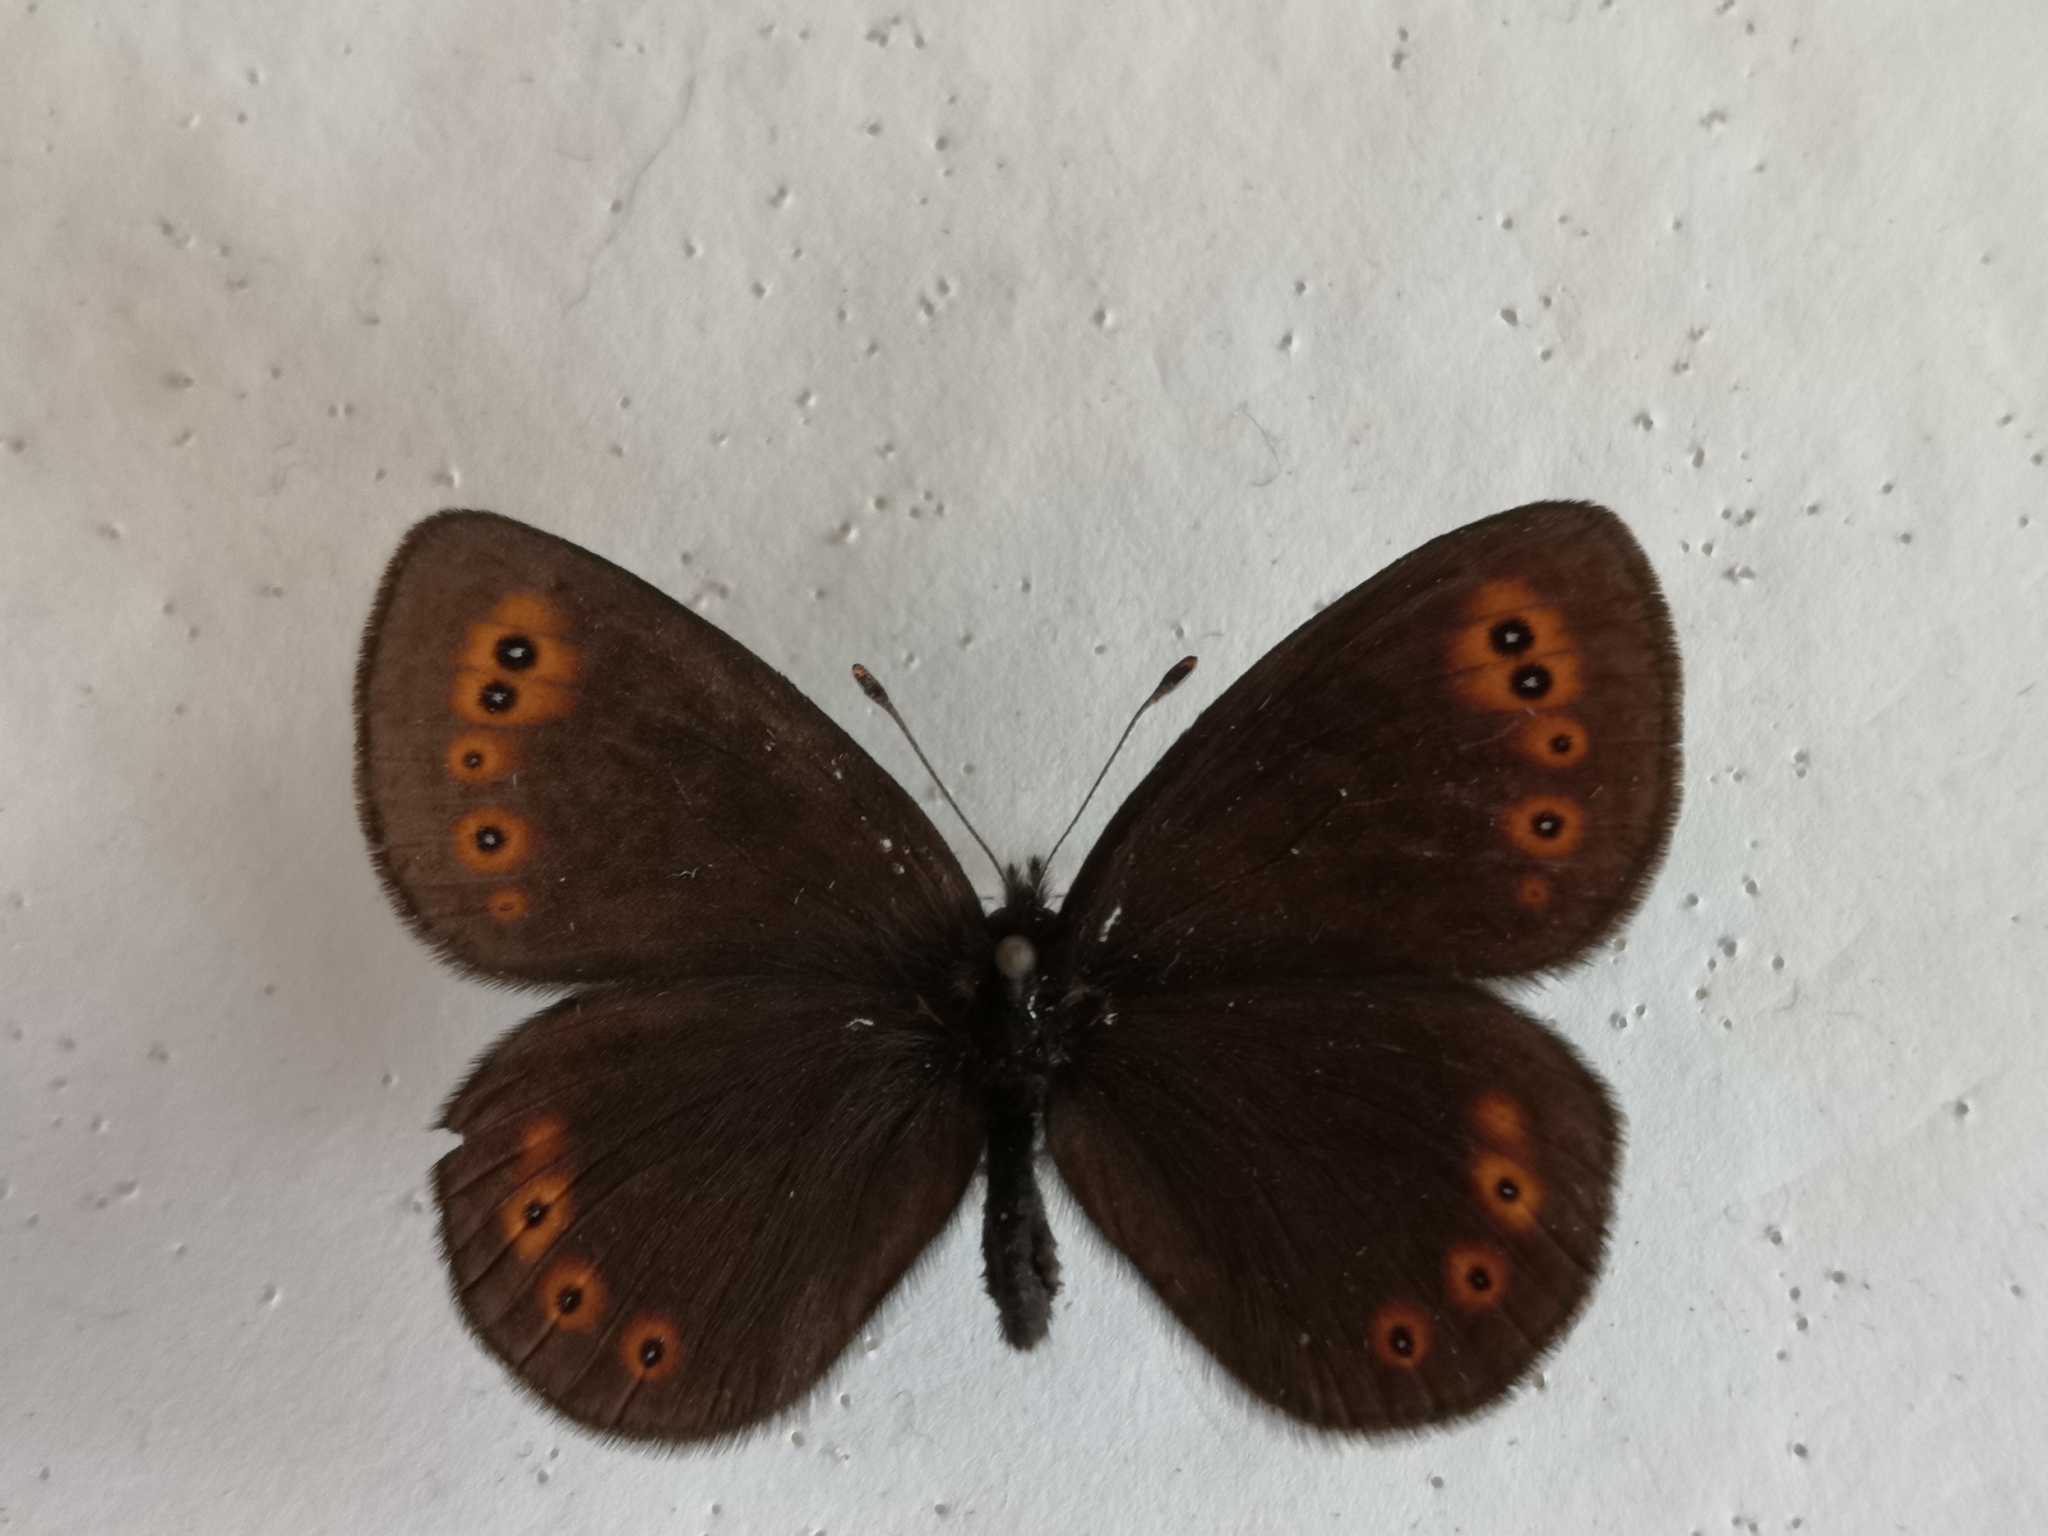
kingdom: Animalia
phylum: Arthropoda
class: Insecta
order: Lepidoptera
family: Nymphalidae
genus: Erebia
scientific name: Erebia medusa
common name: Woodland ringlet
